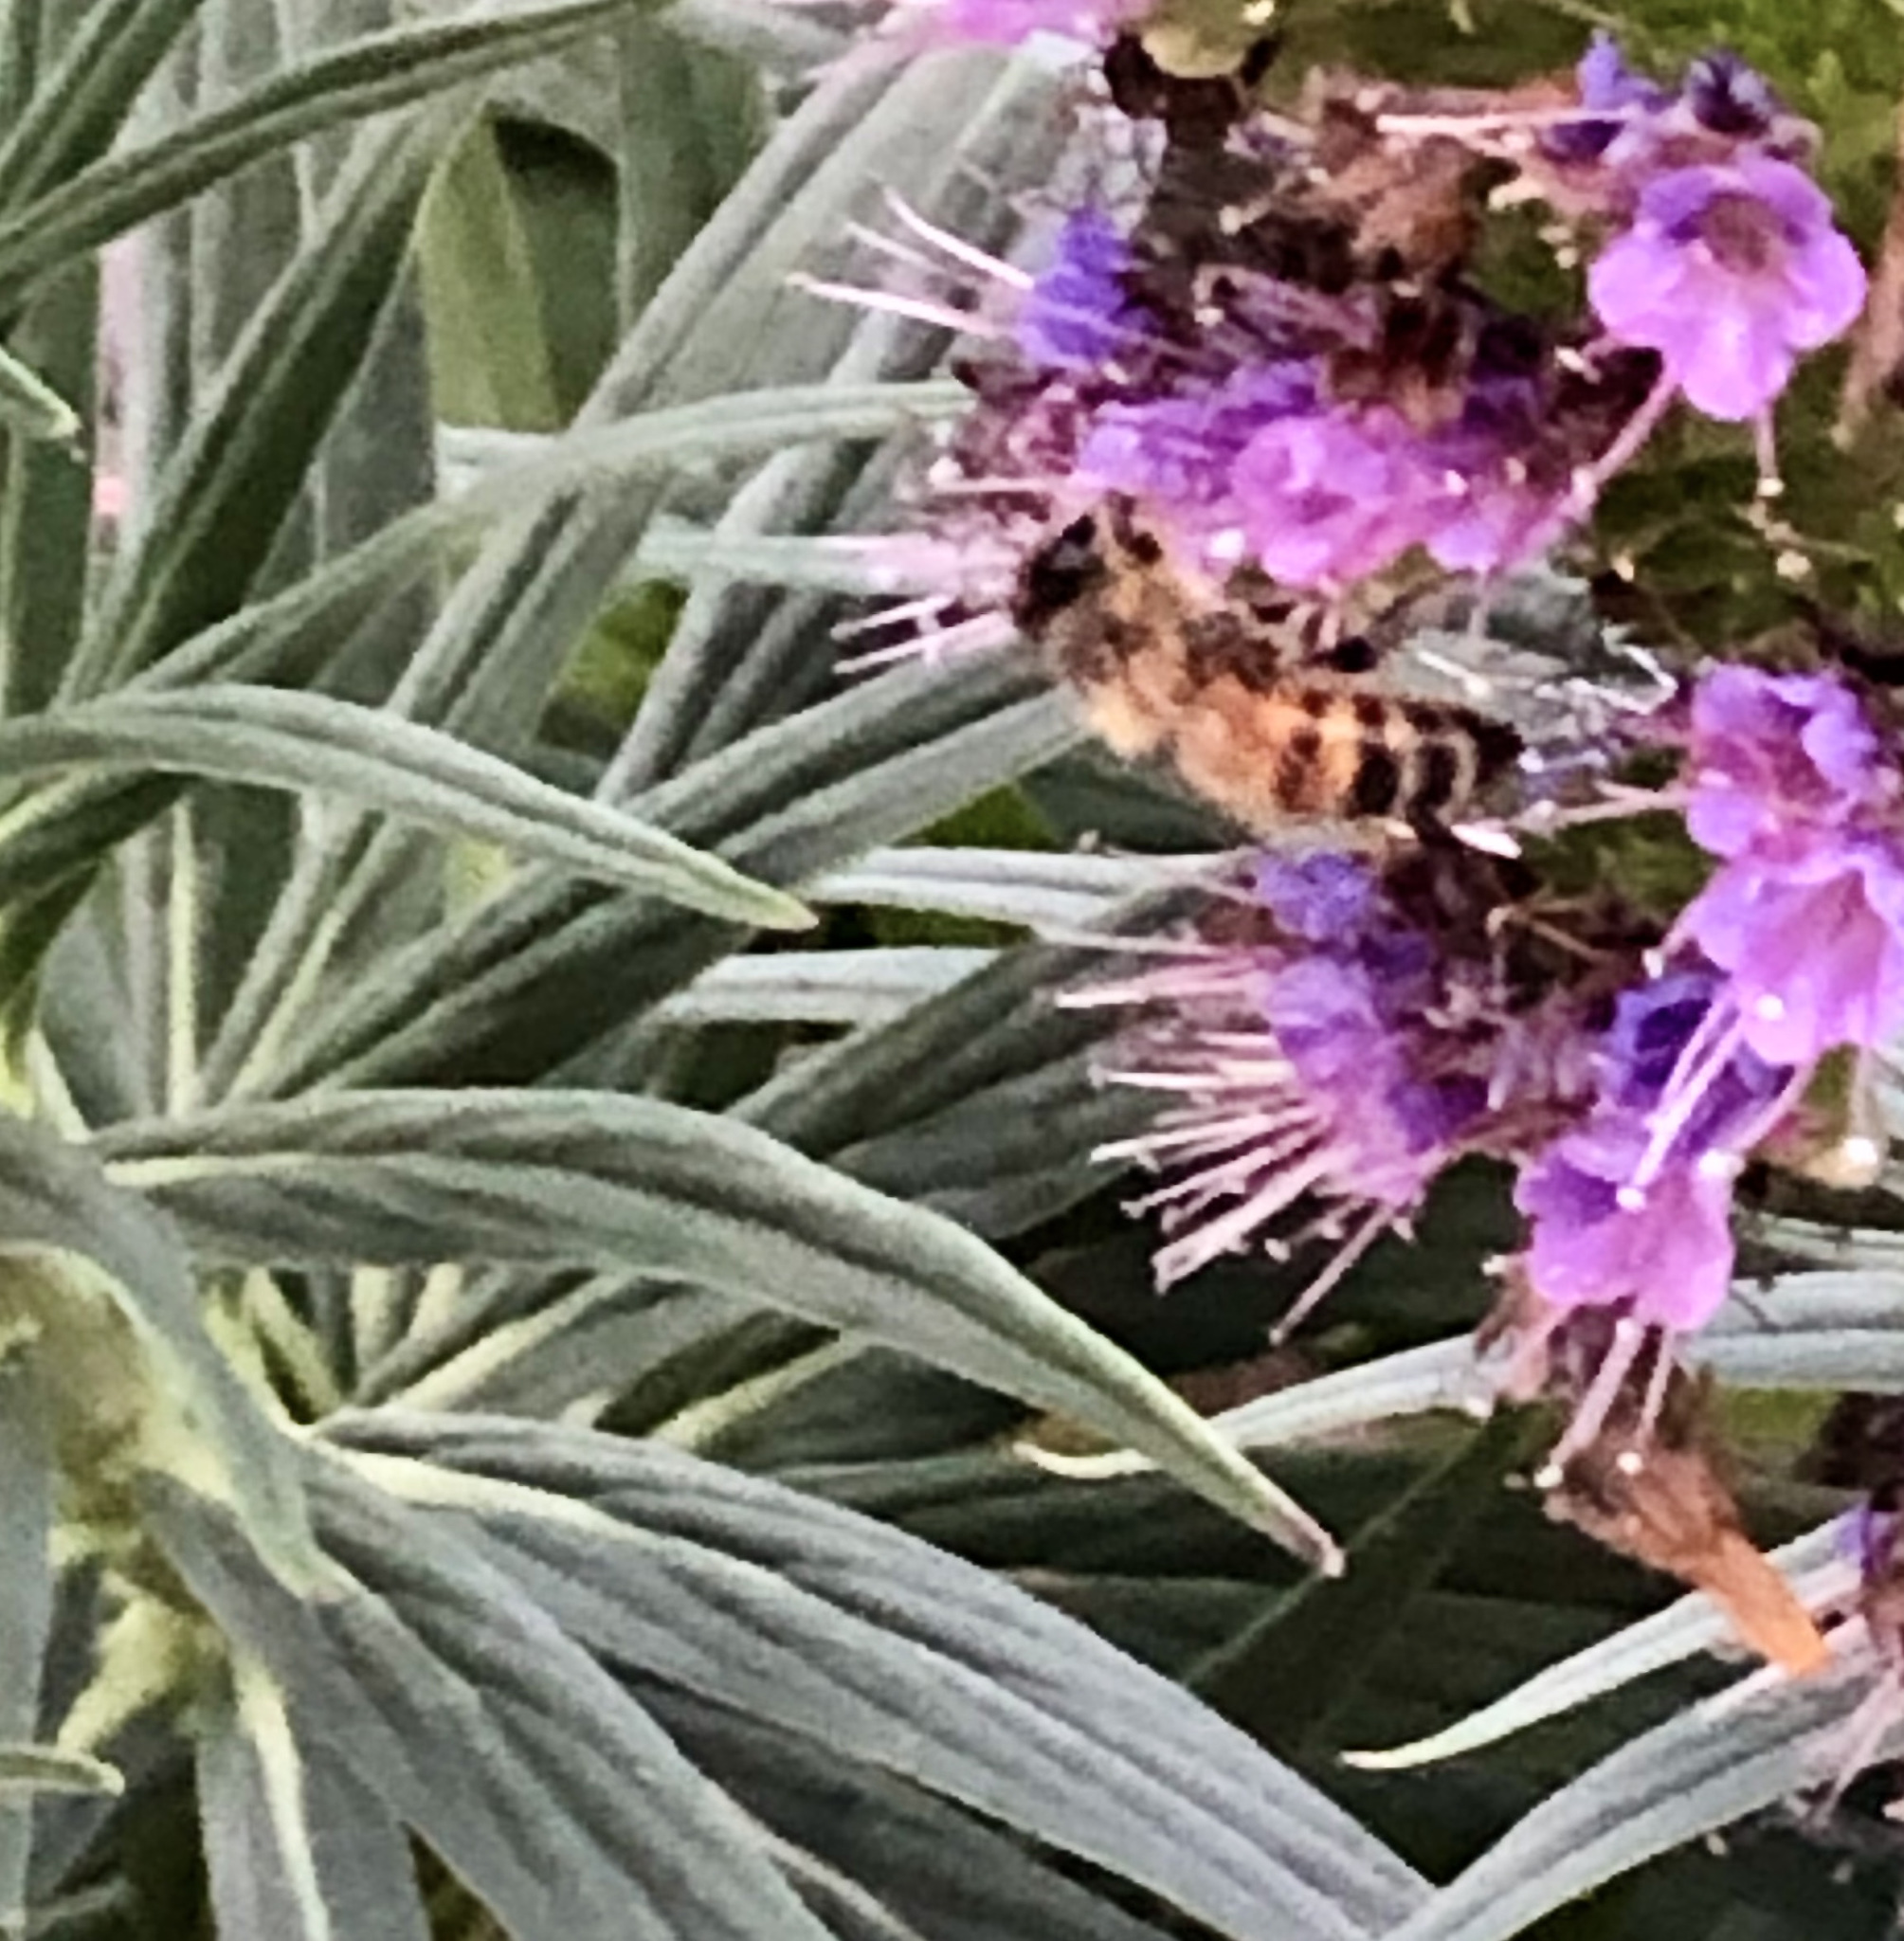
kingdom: Animalia
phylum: Arthropoda
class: Insecta
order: Hymenoptera
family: Apidae
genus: Apis
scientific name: Apis mellifera
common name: Honey bee
